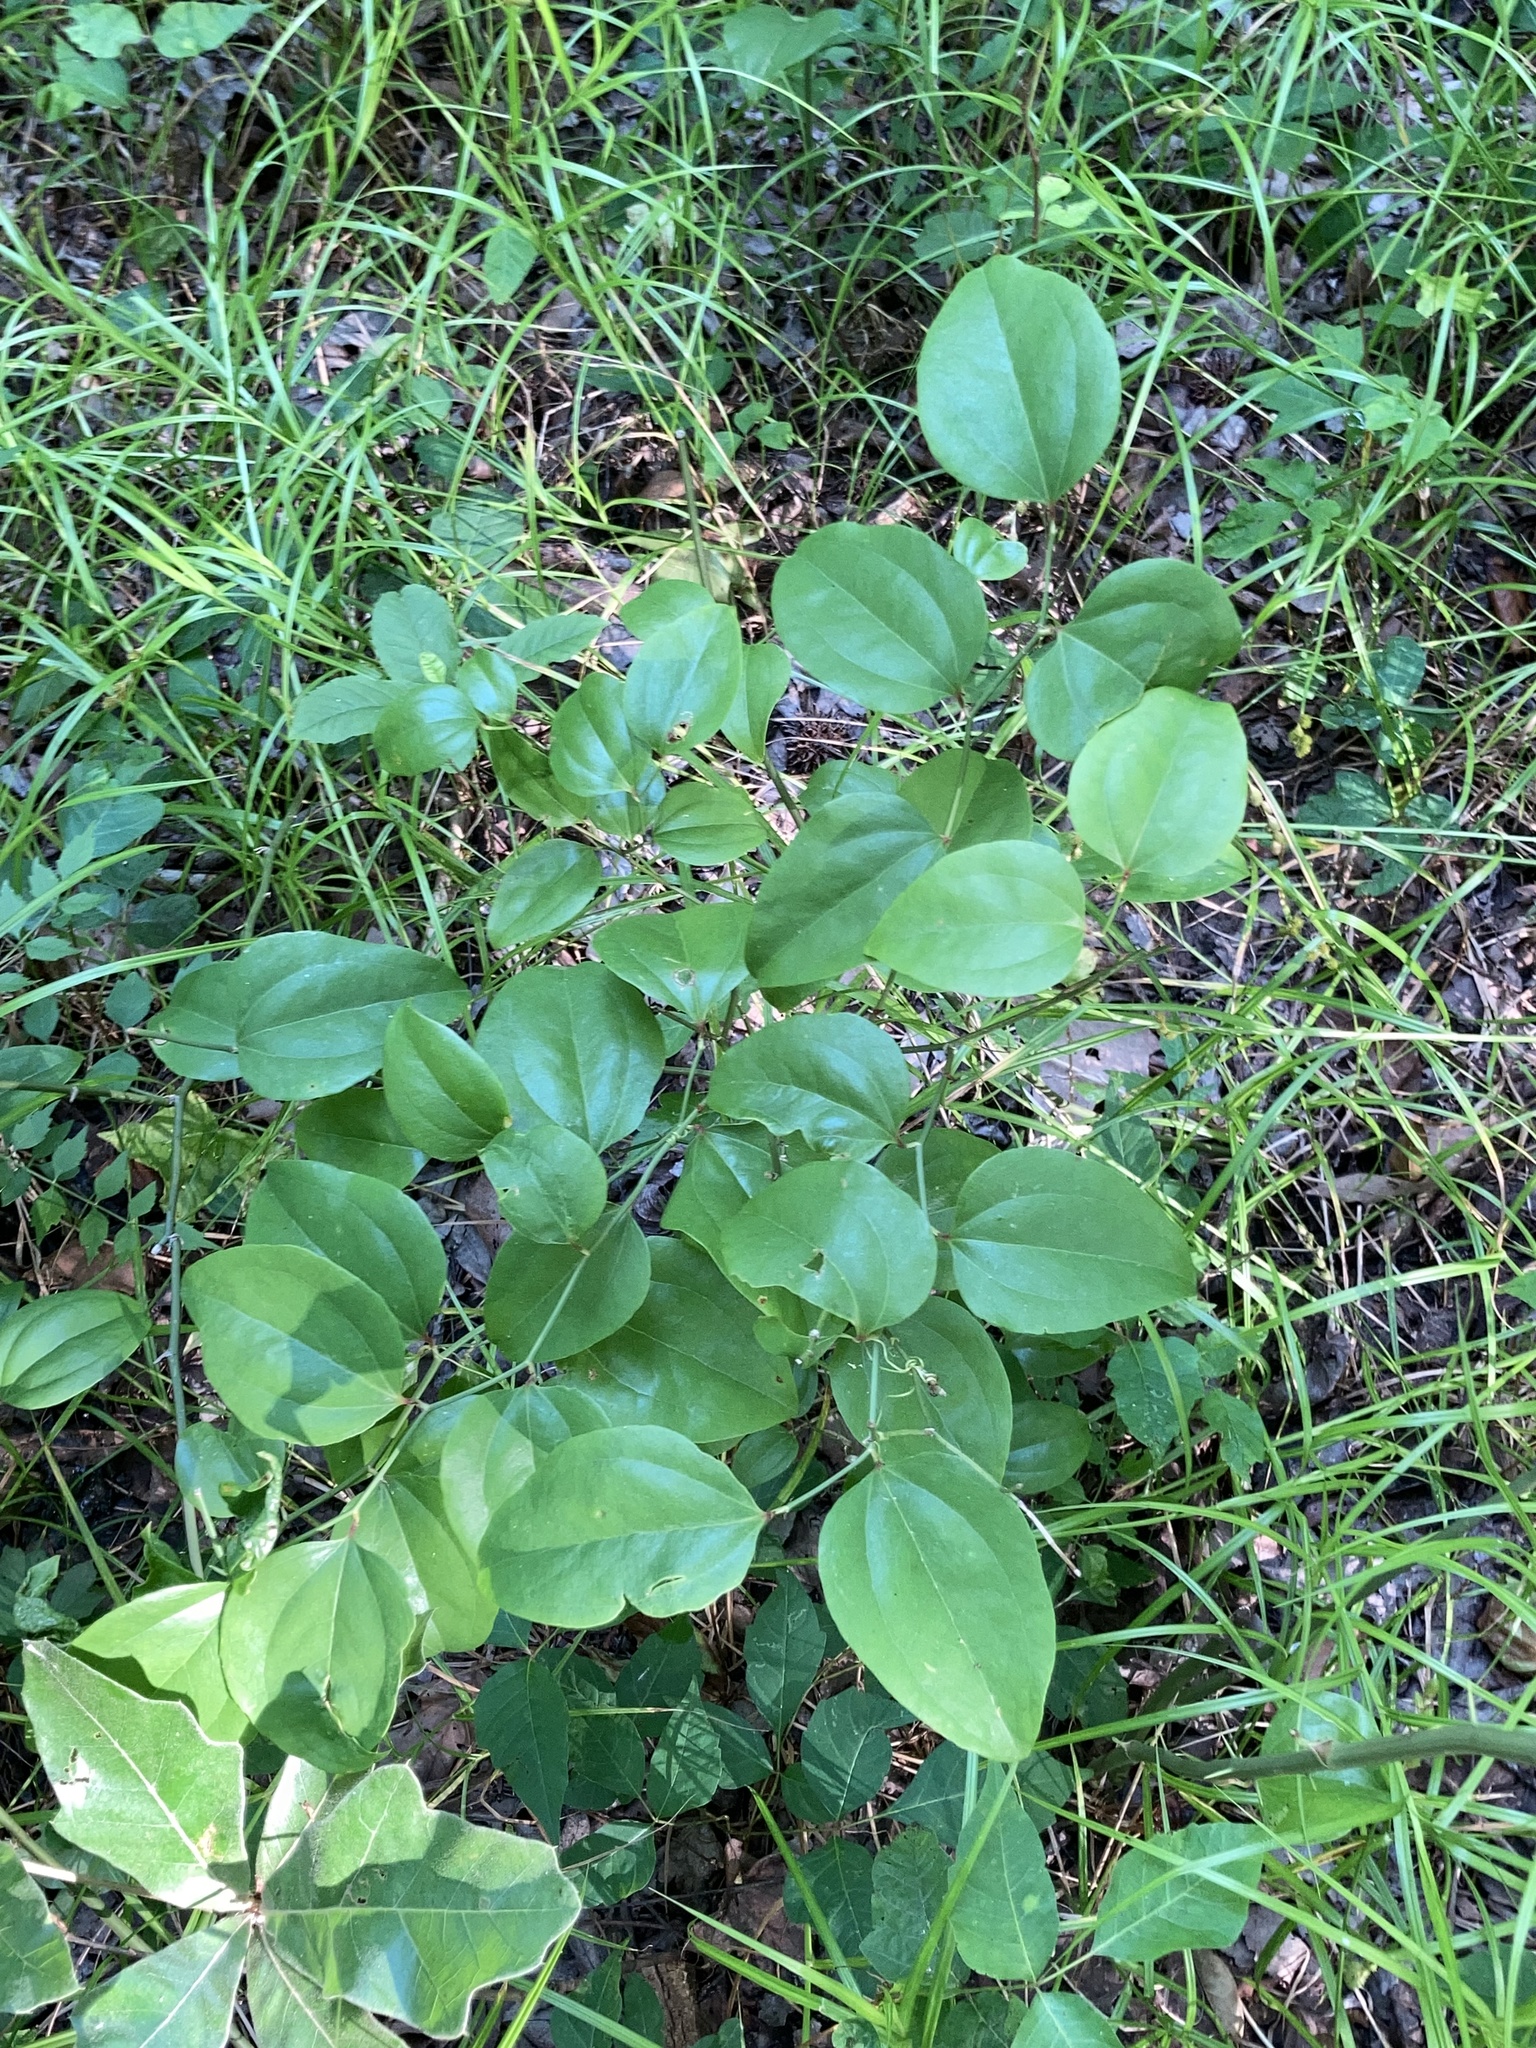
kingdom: Plantae
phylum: Tracheophyta
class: Liliopsida
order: Liliales
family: Smilacaceae
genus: Smilax
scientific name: Smilax rotundifolia
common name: Bullbriar
